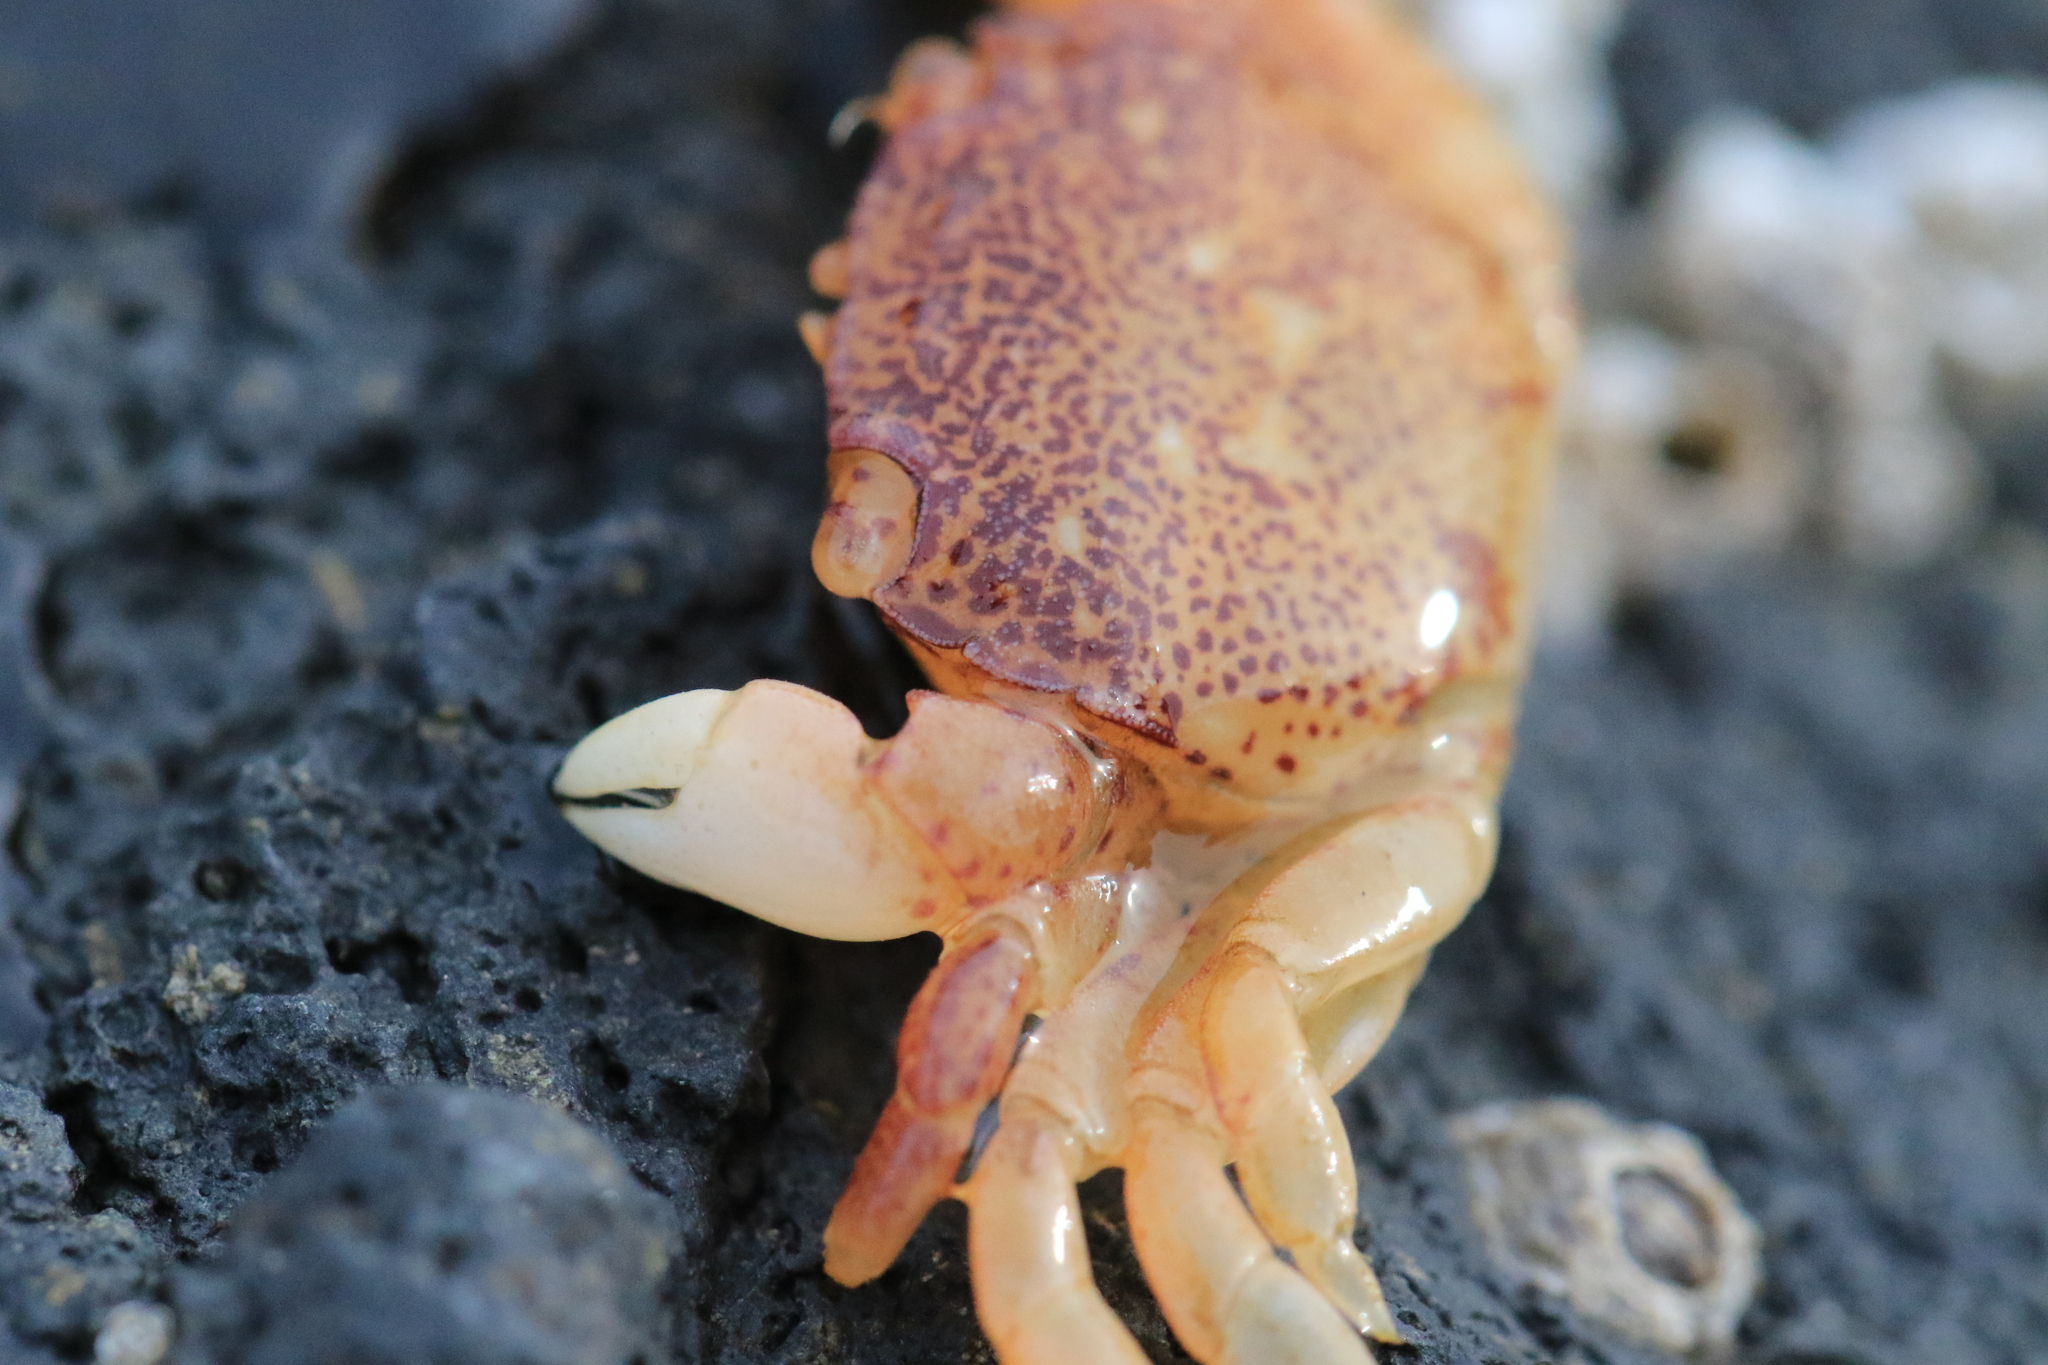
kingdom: Animalia
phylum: Arthropoda
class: Malacostraca
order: Decapoda
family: Varunidae
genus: Hemigrapsus
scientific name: Hemigrapsus nudus
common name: Purple shore crab
